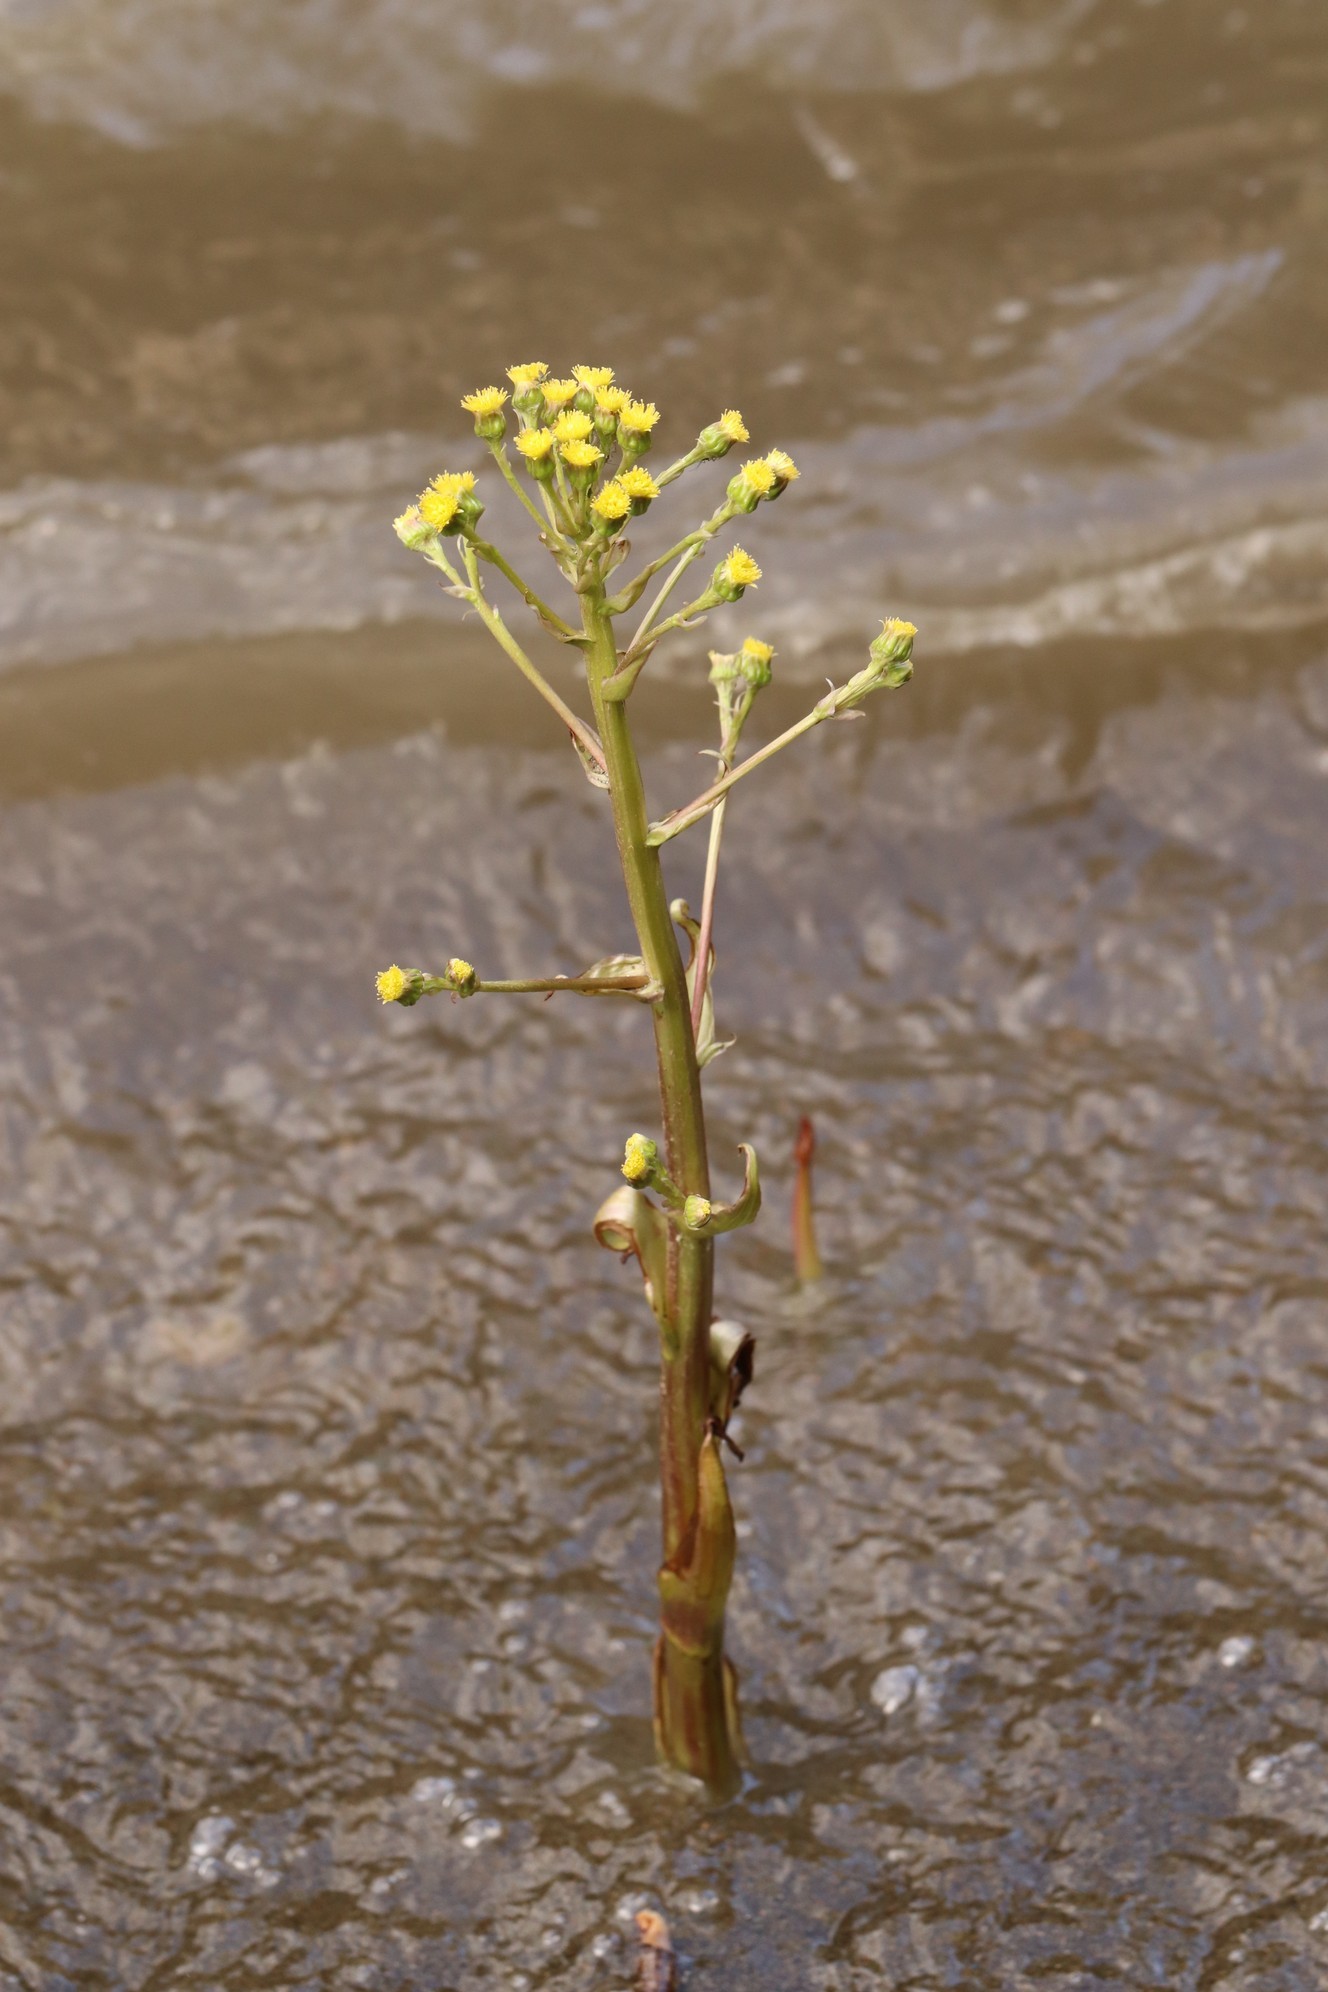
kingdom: Plantae
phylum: Tracheophyta
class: Magnoliopsida
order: Asterales
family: Asteraceae
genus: Petasites
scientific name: Petasites radiatus
